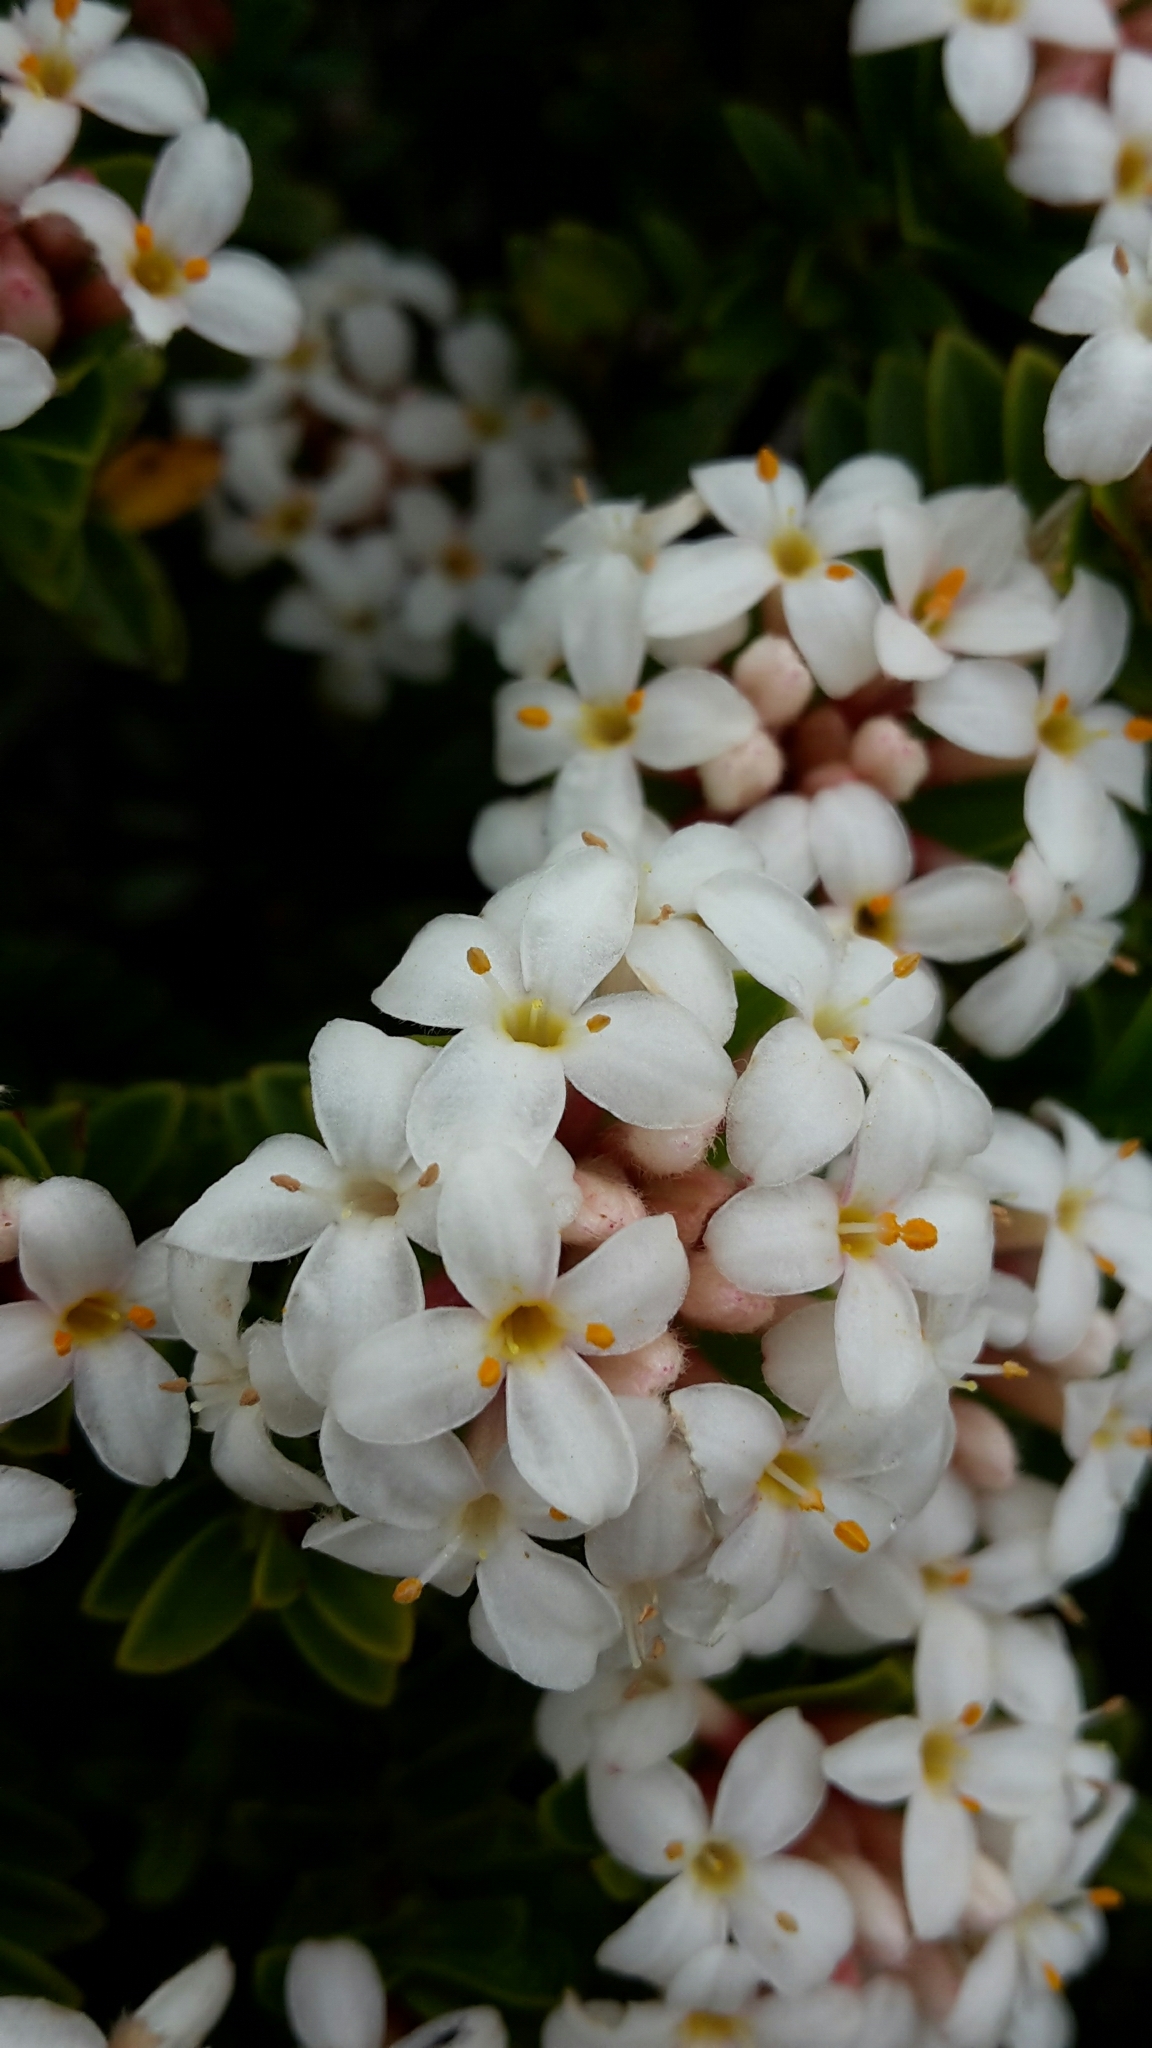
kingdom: Plantae
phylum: Tracheophyta
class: Magnoliopsida
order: Malvales
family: Thymelaeaceae
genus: Pimelea
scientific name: Pimelea buxifolia
